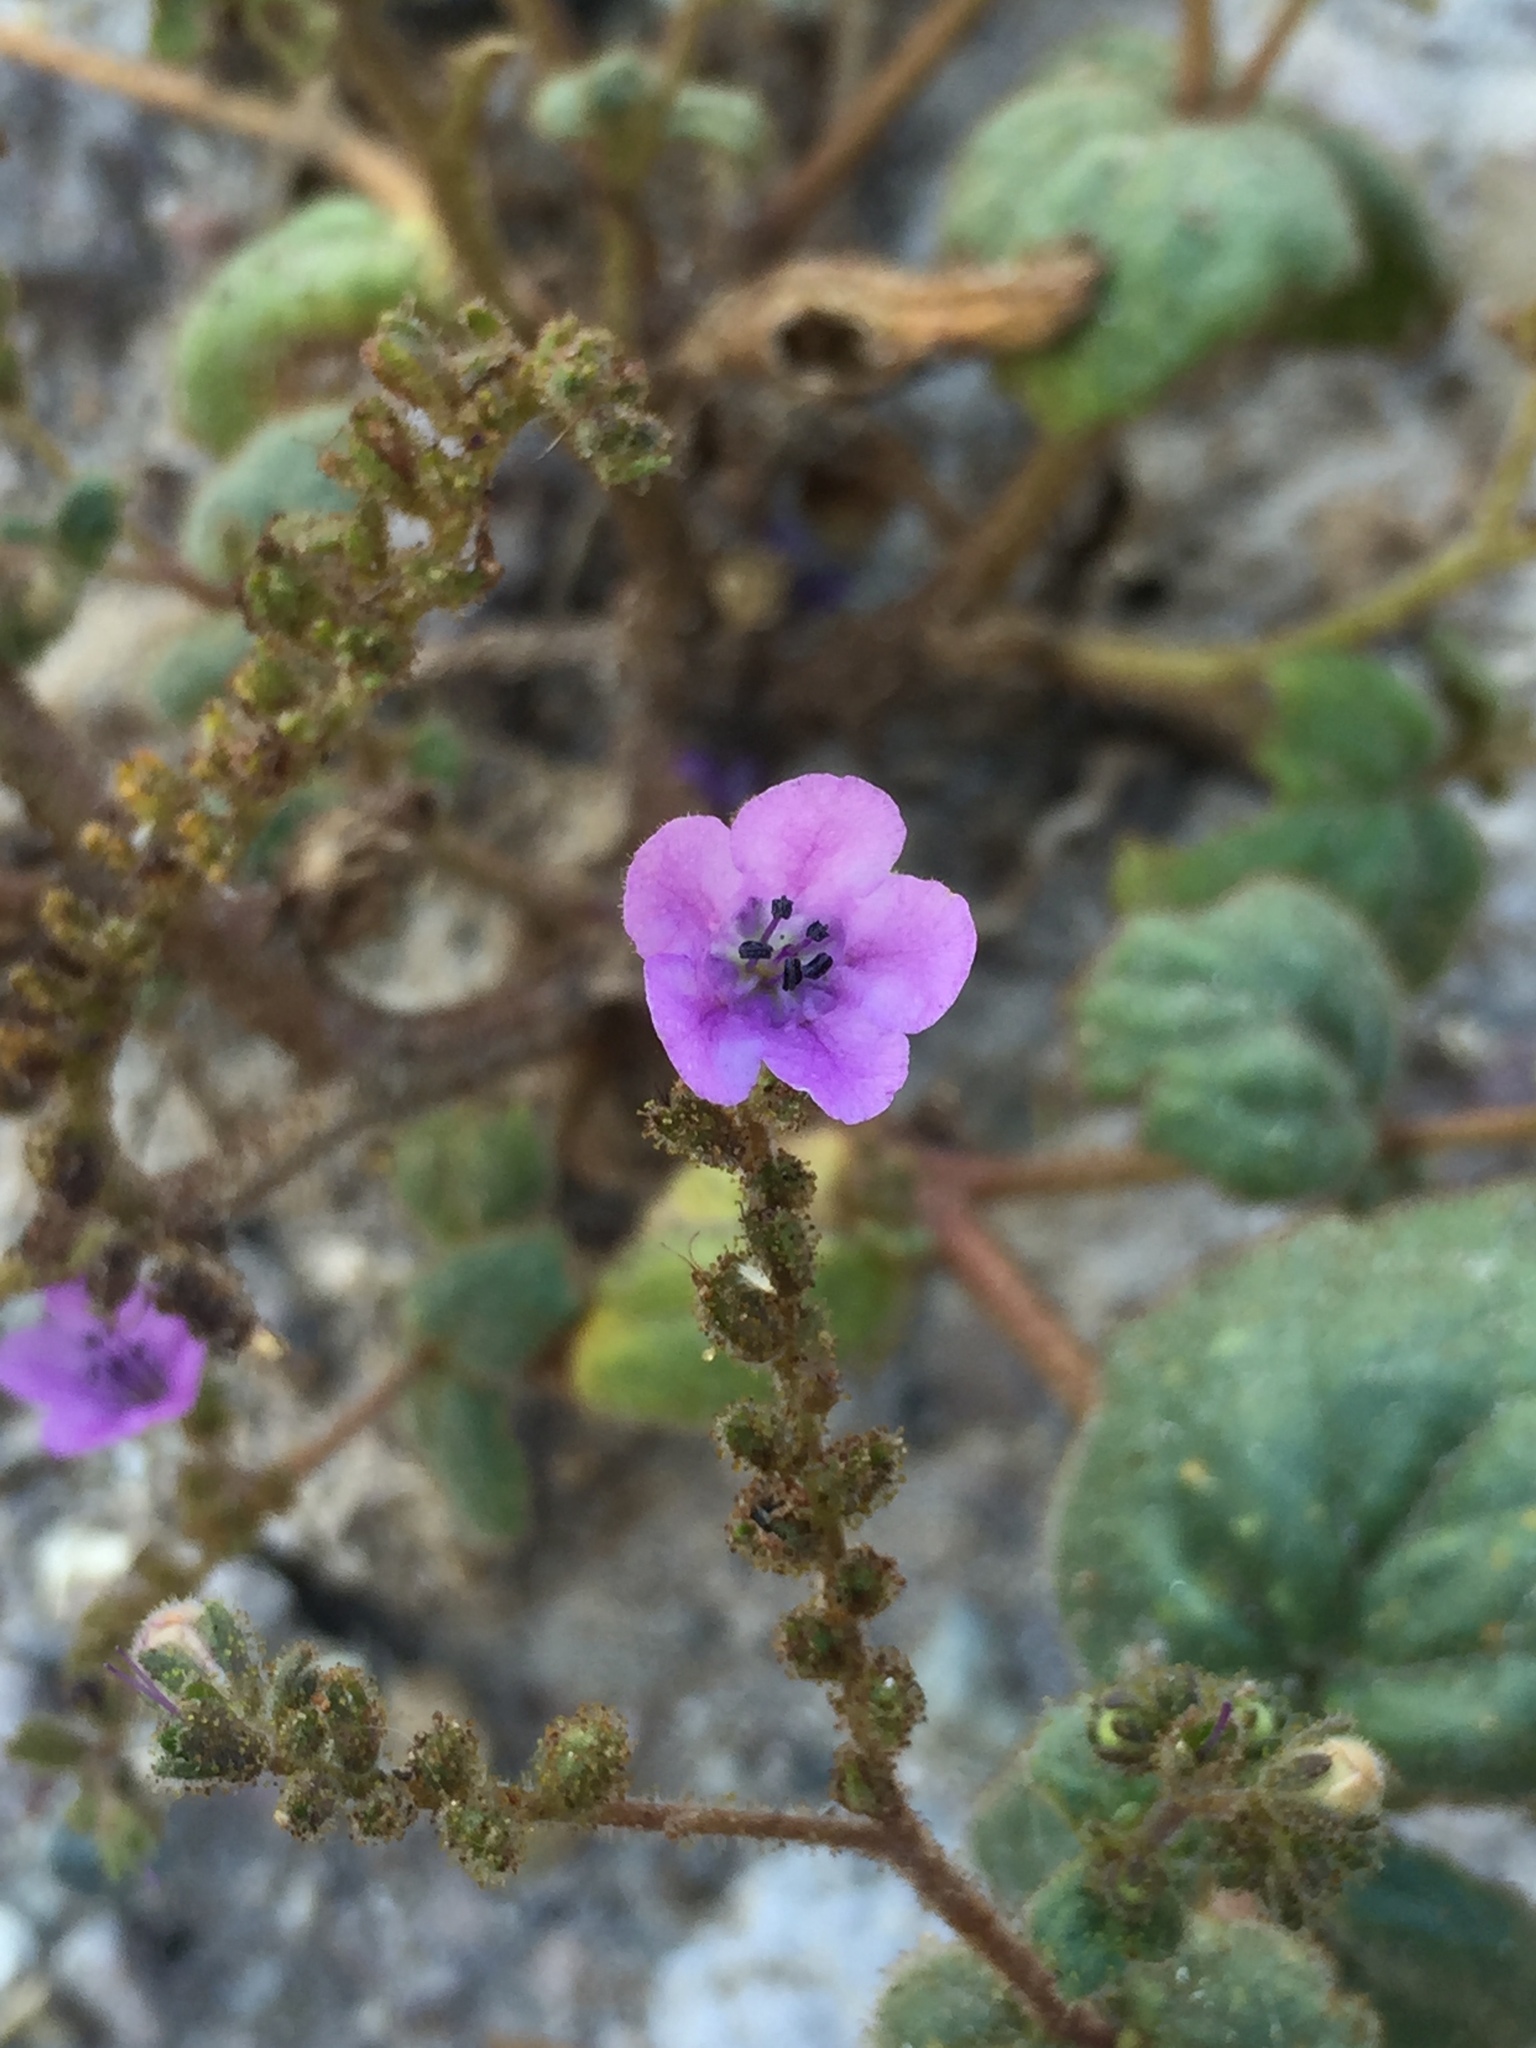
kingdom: Plantae
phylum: Tracheophyta
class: Magnoliopsida
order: Boraginales
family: Hydrophyllaceae
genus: Phacelia
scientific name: Phacelia calthifolia
